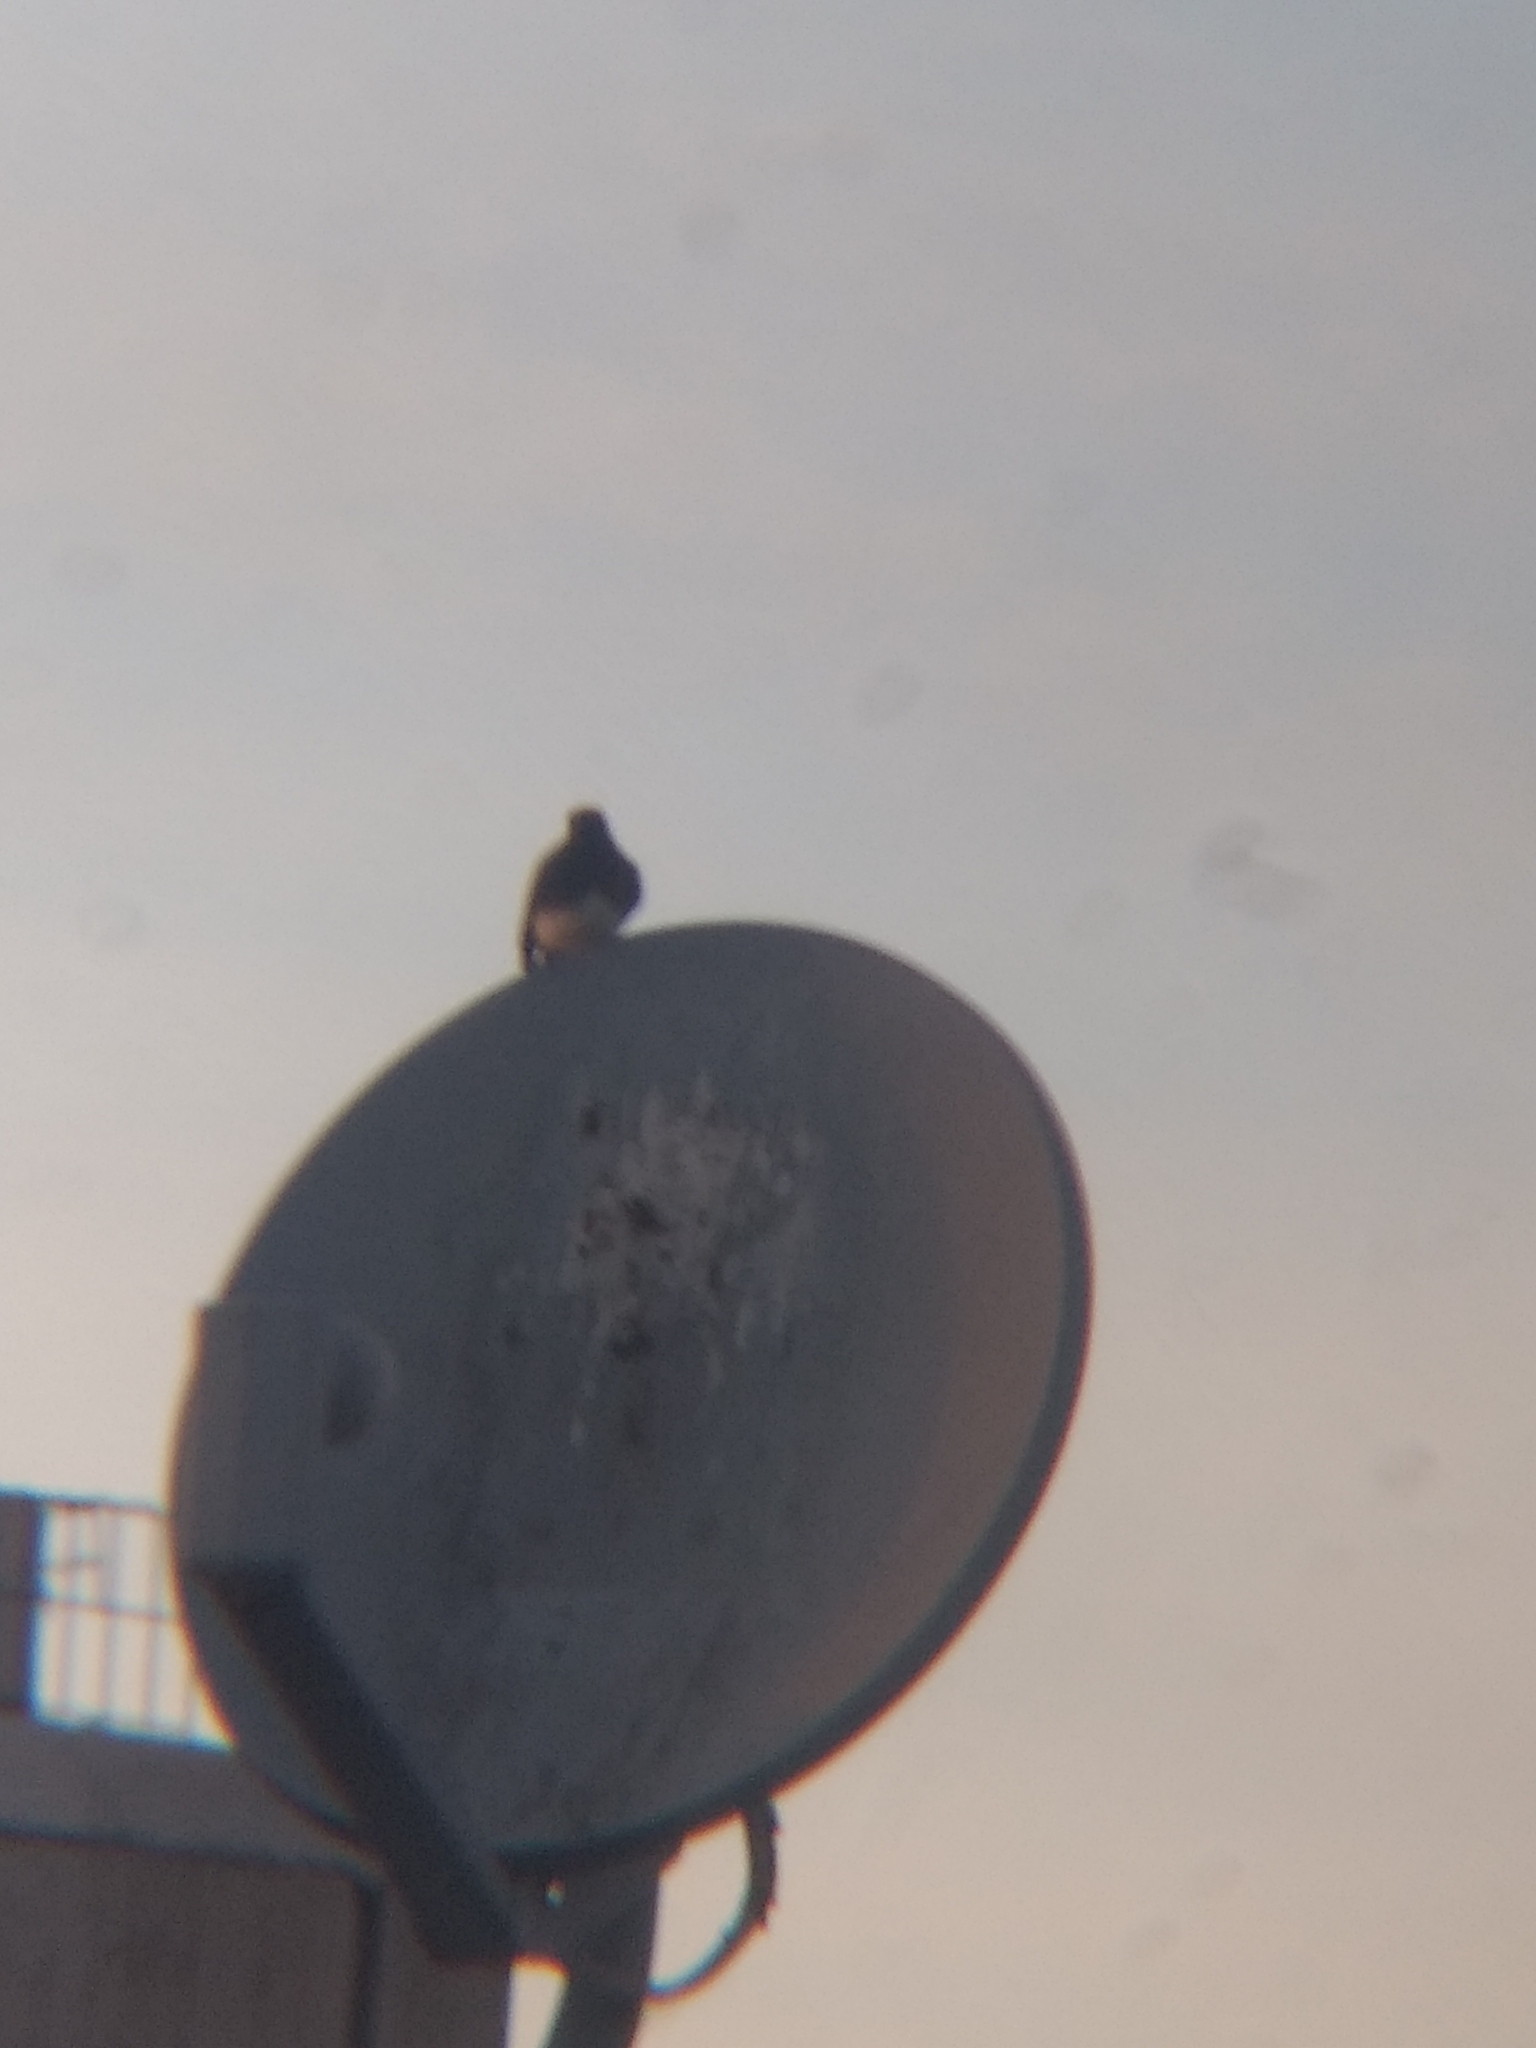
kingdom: Animalia
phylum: Chordata
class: Aves
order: Passeriformes
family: Tyrannidae
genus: Sayornis
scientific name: Sayornis nigricans
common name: Black phoebe
